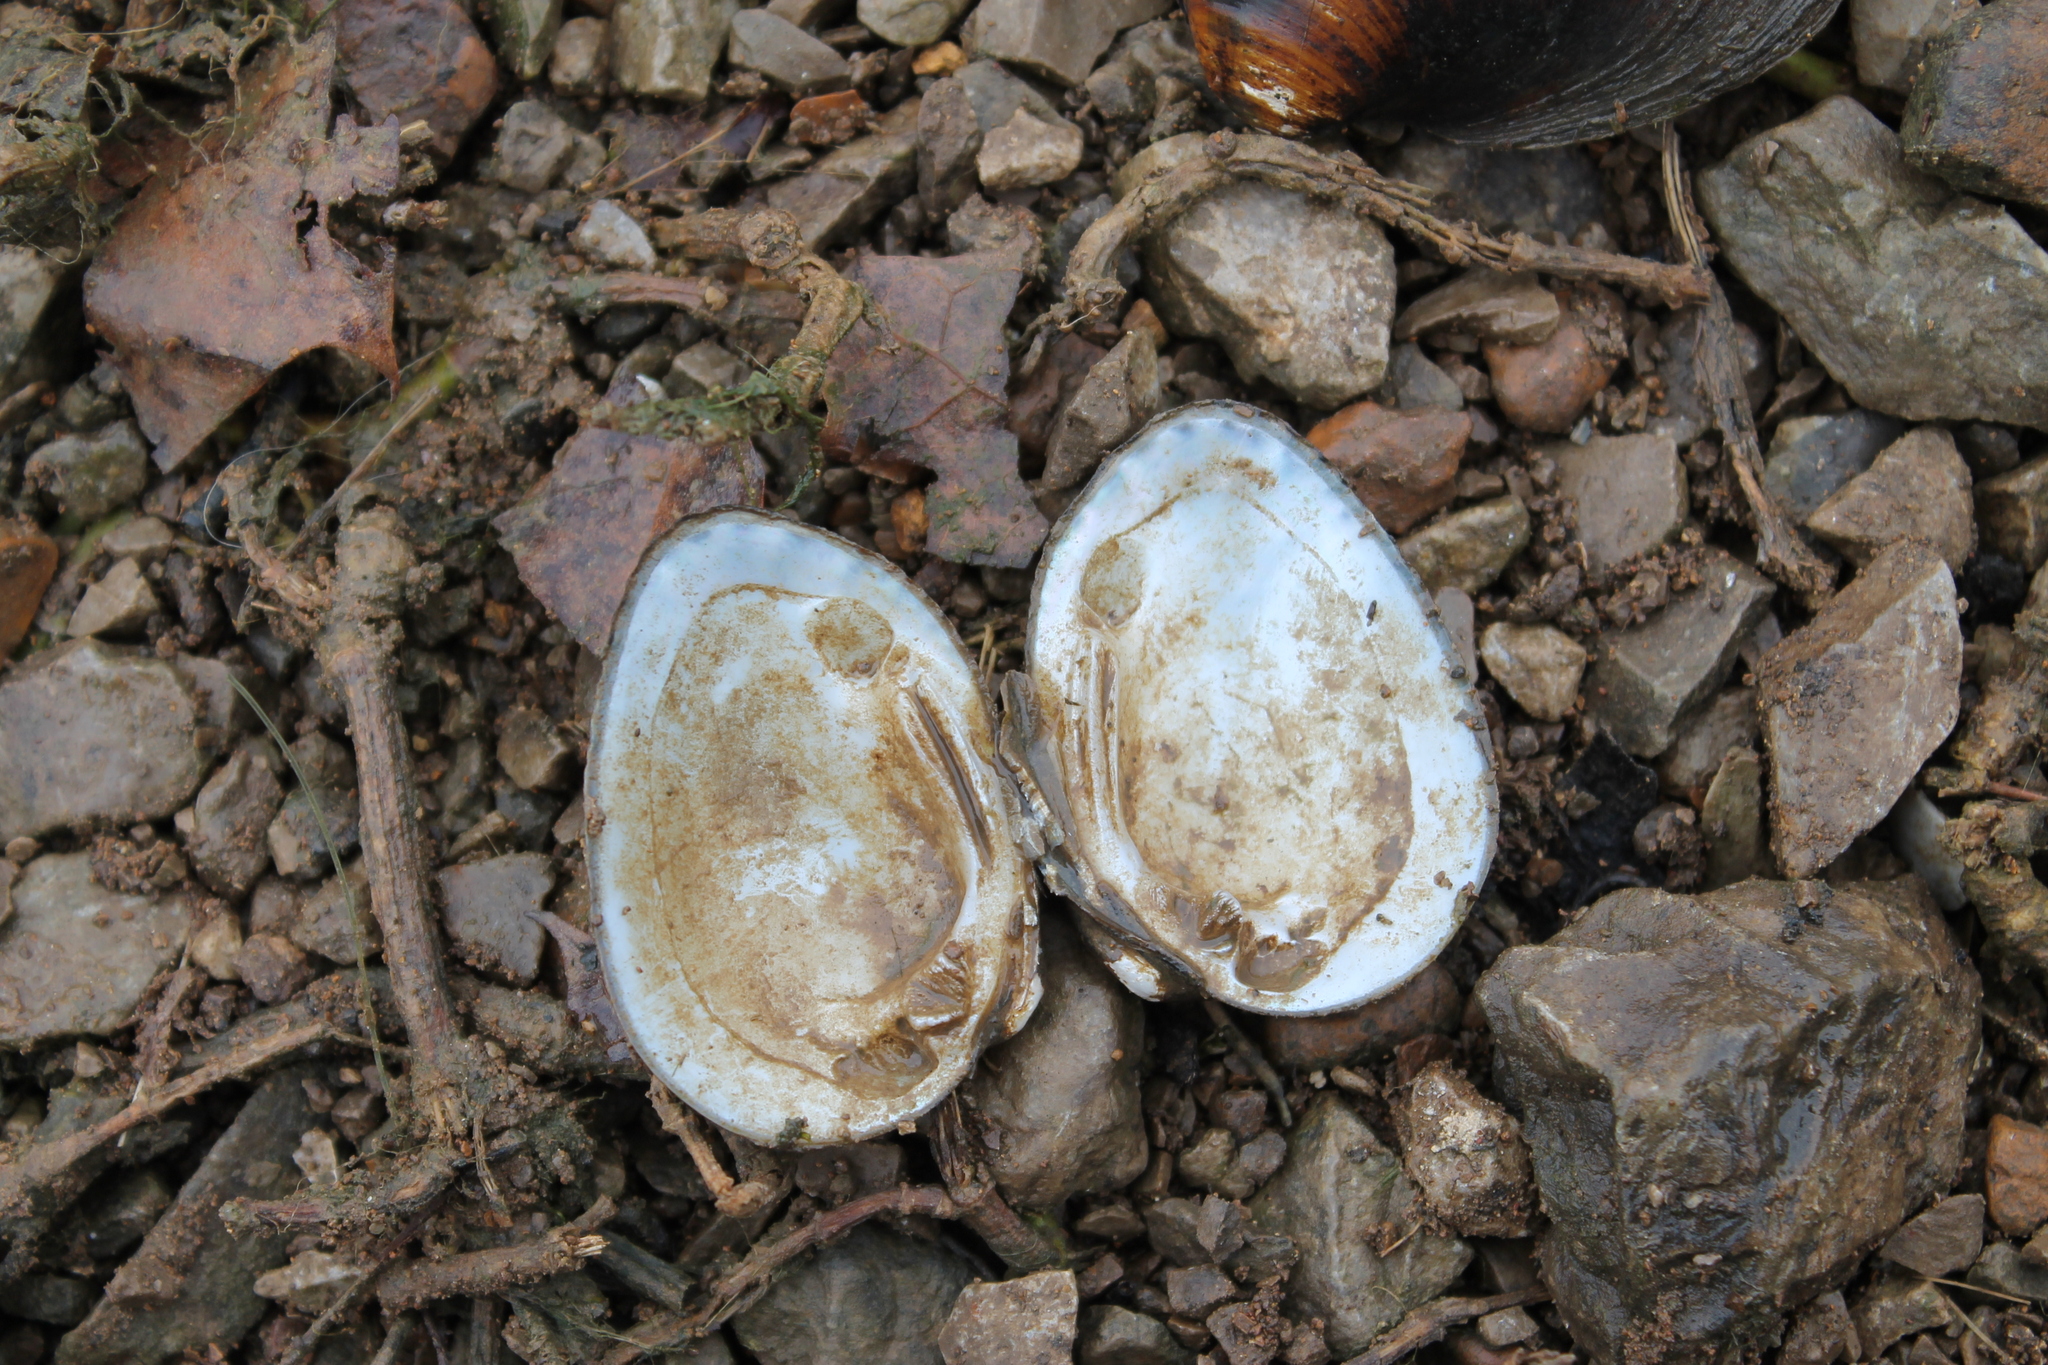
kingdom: Animalia
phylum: Mollusca
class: Bivalvia
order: Unionida
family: Unionidae
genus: Lemiox
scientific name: Lemiox rimosus
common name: Birdwing pearlymussel
